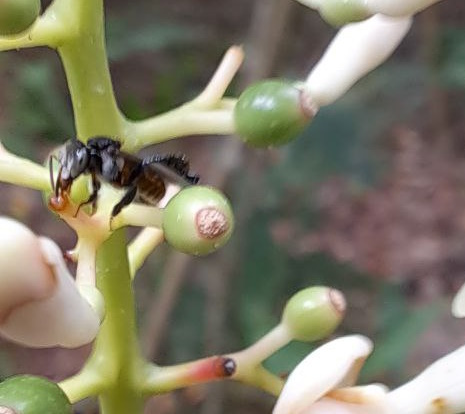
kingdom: Animalia
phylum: Arthropoda
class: Insecta
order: Hymenoptera
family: Apidae
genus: Tetragonula
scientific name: Tetragonula valdezi
